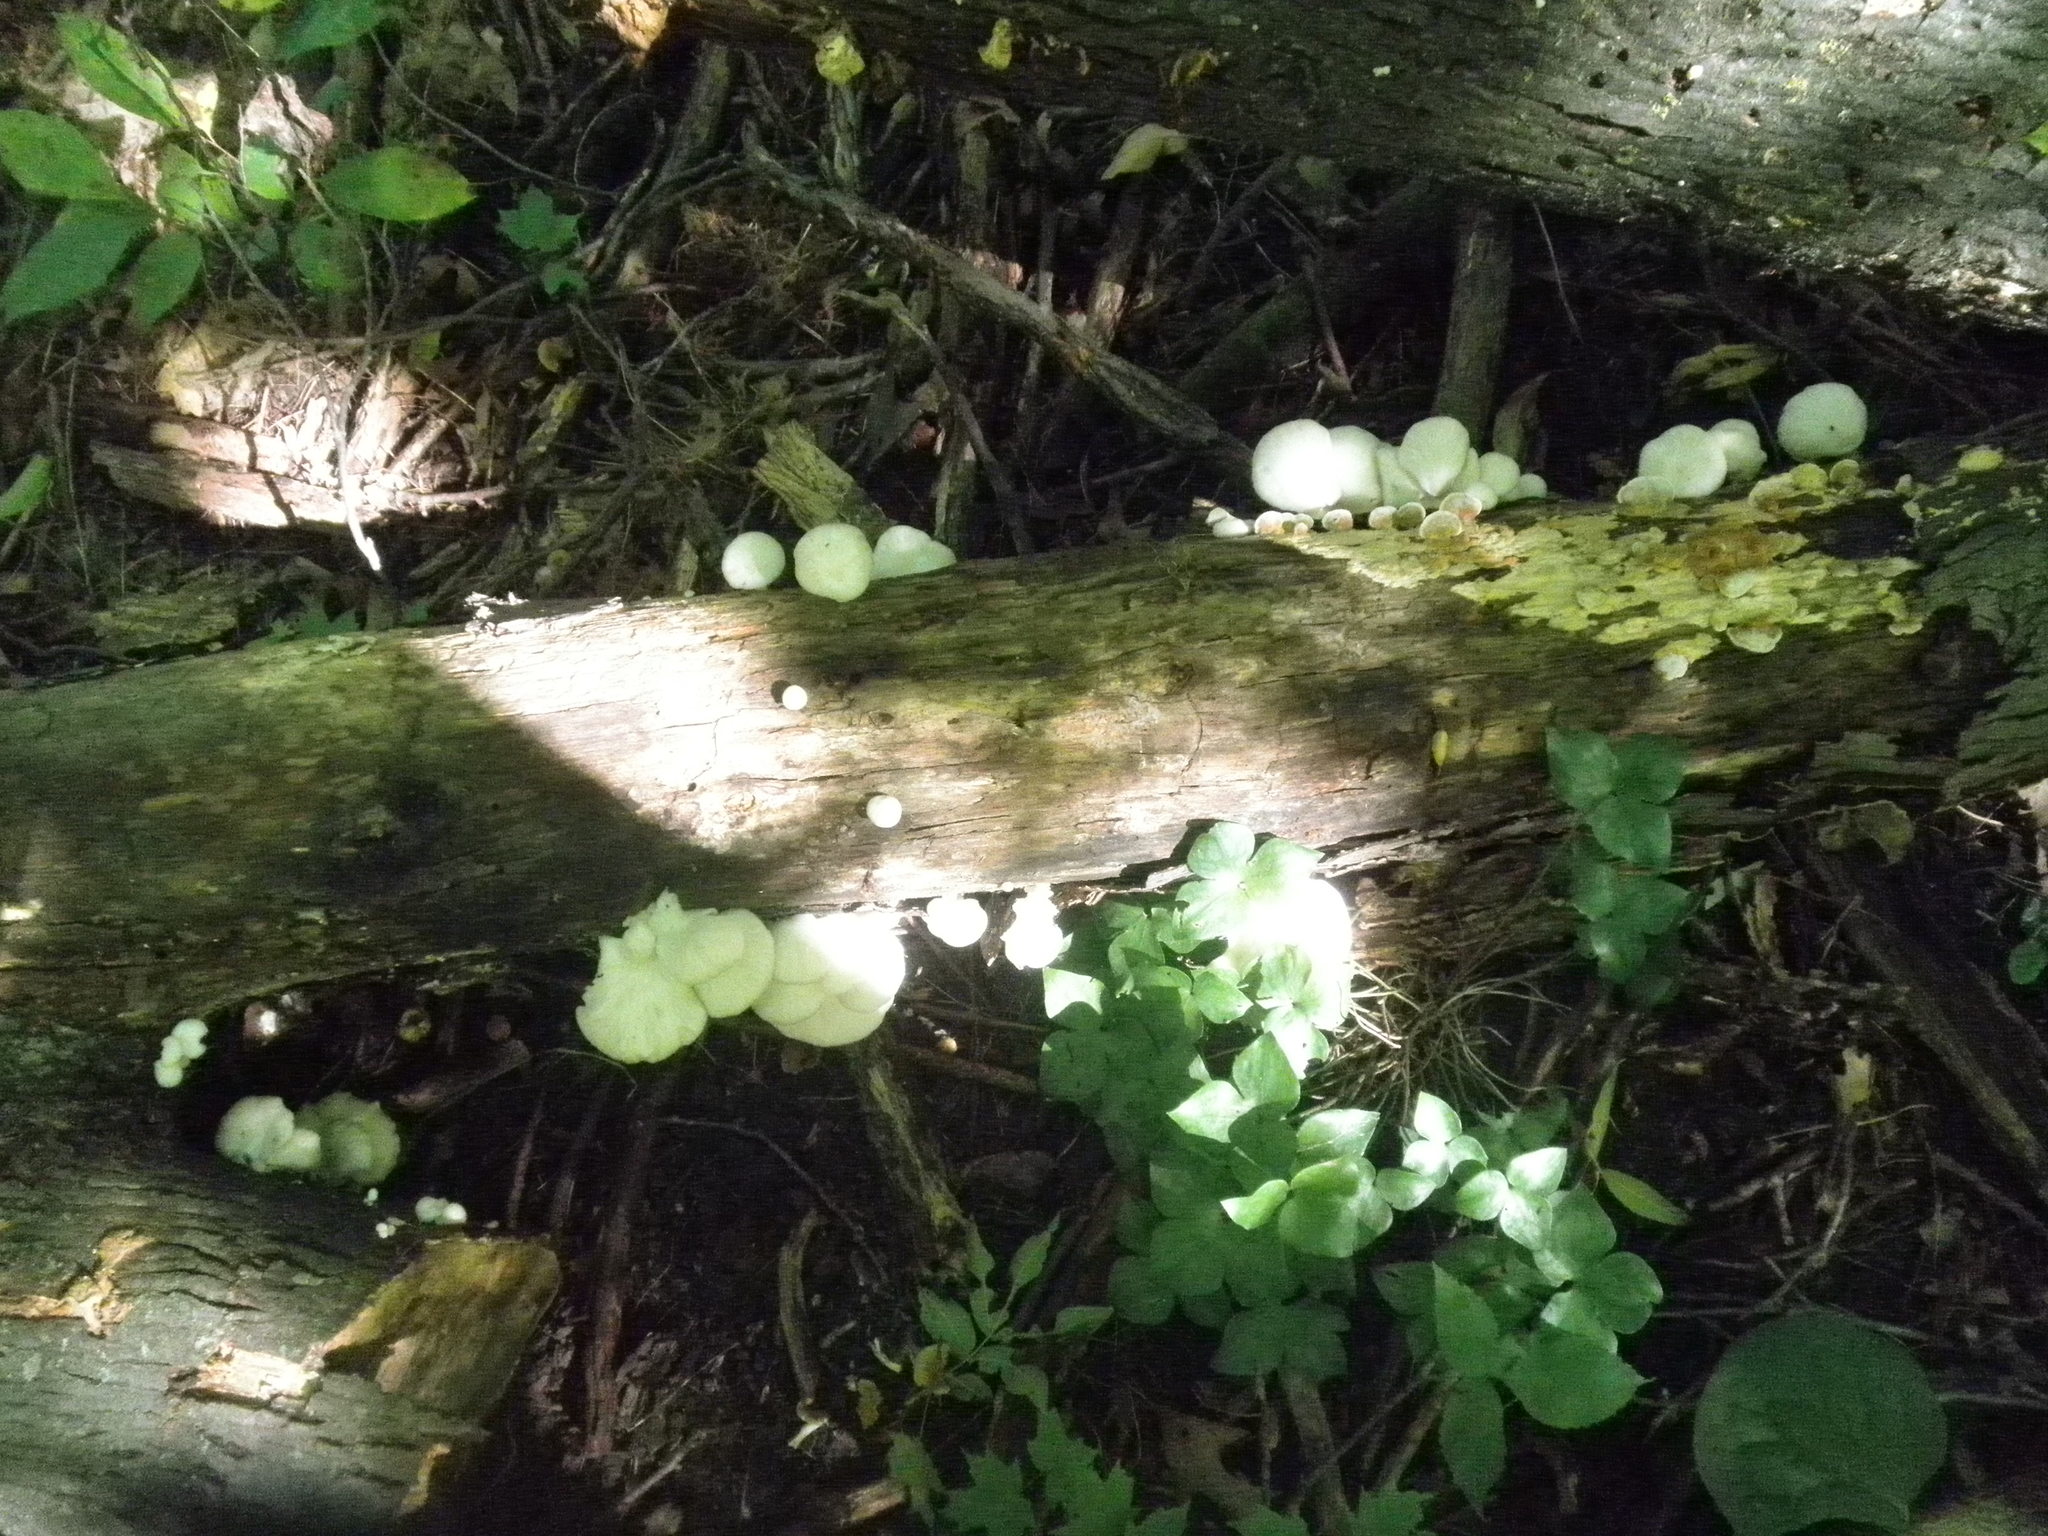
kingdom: Fungi
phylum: Basidiomycota
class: Agaricomycetes
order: Agaricales
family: Pleurotaceae
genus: Pleurotus
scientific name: Pleurotus pulmonarius
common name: Pale oyster
